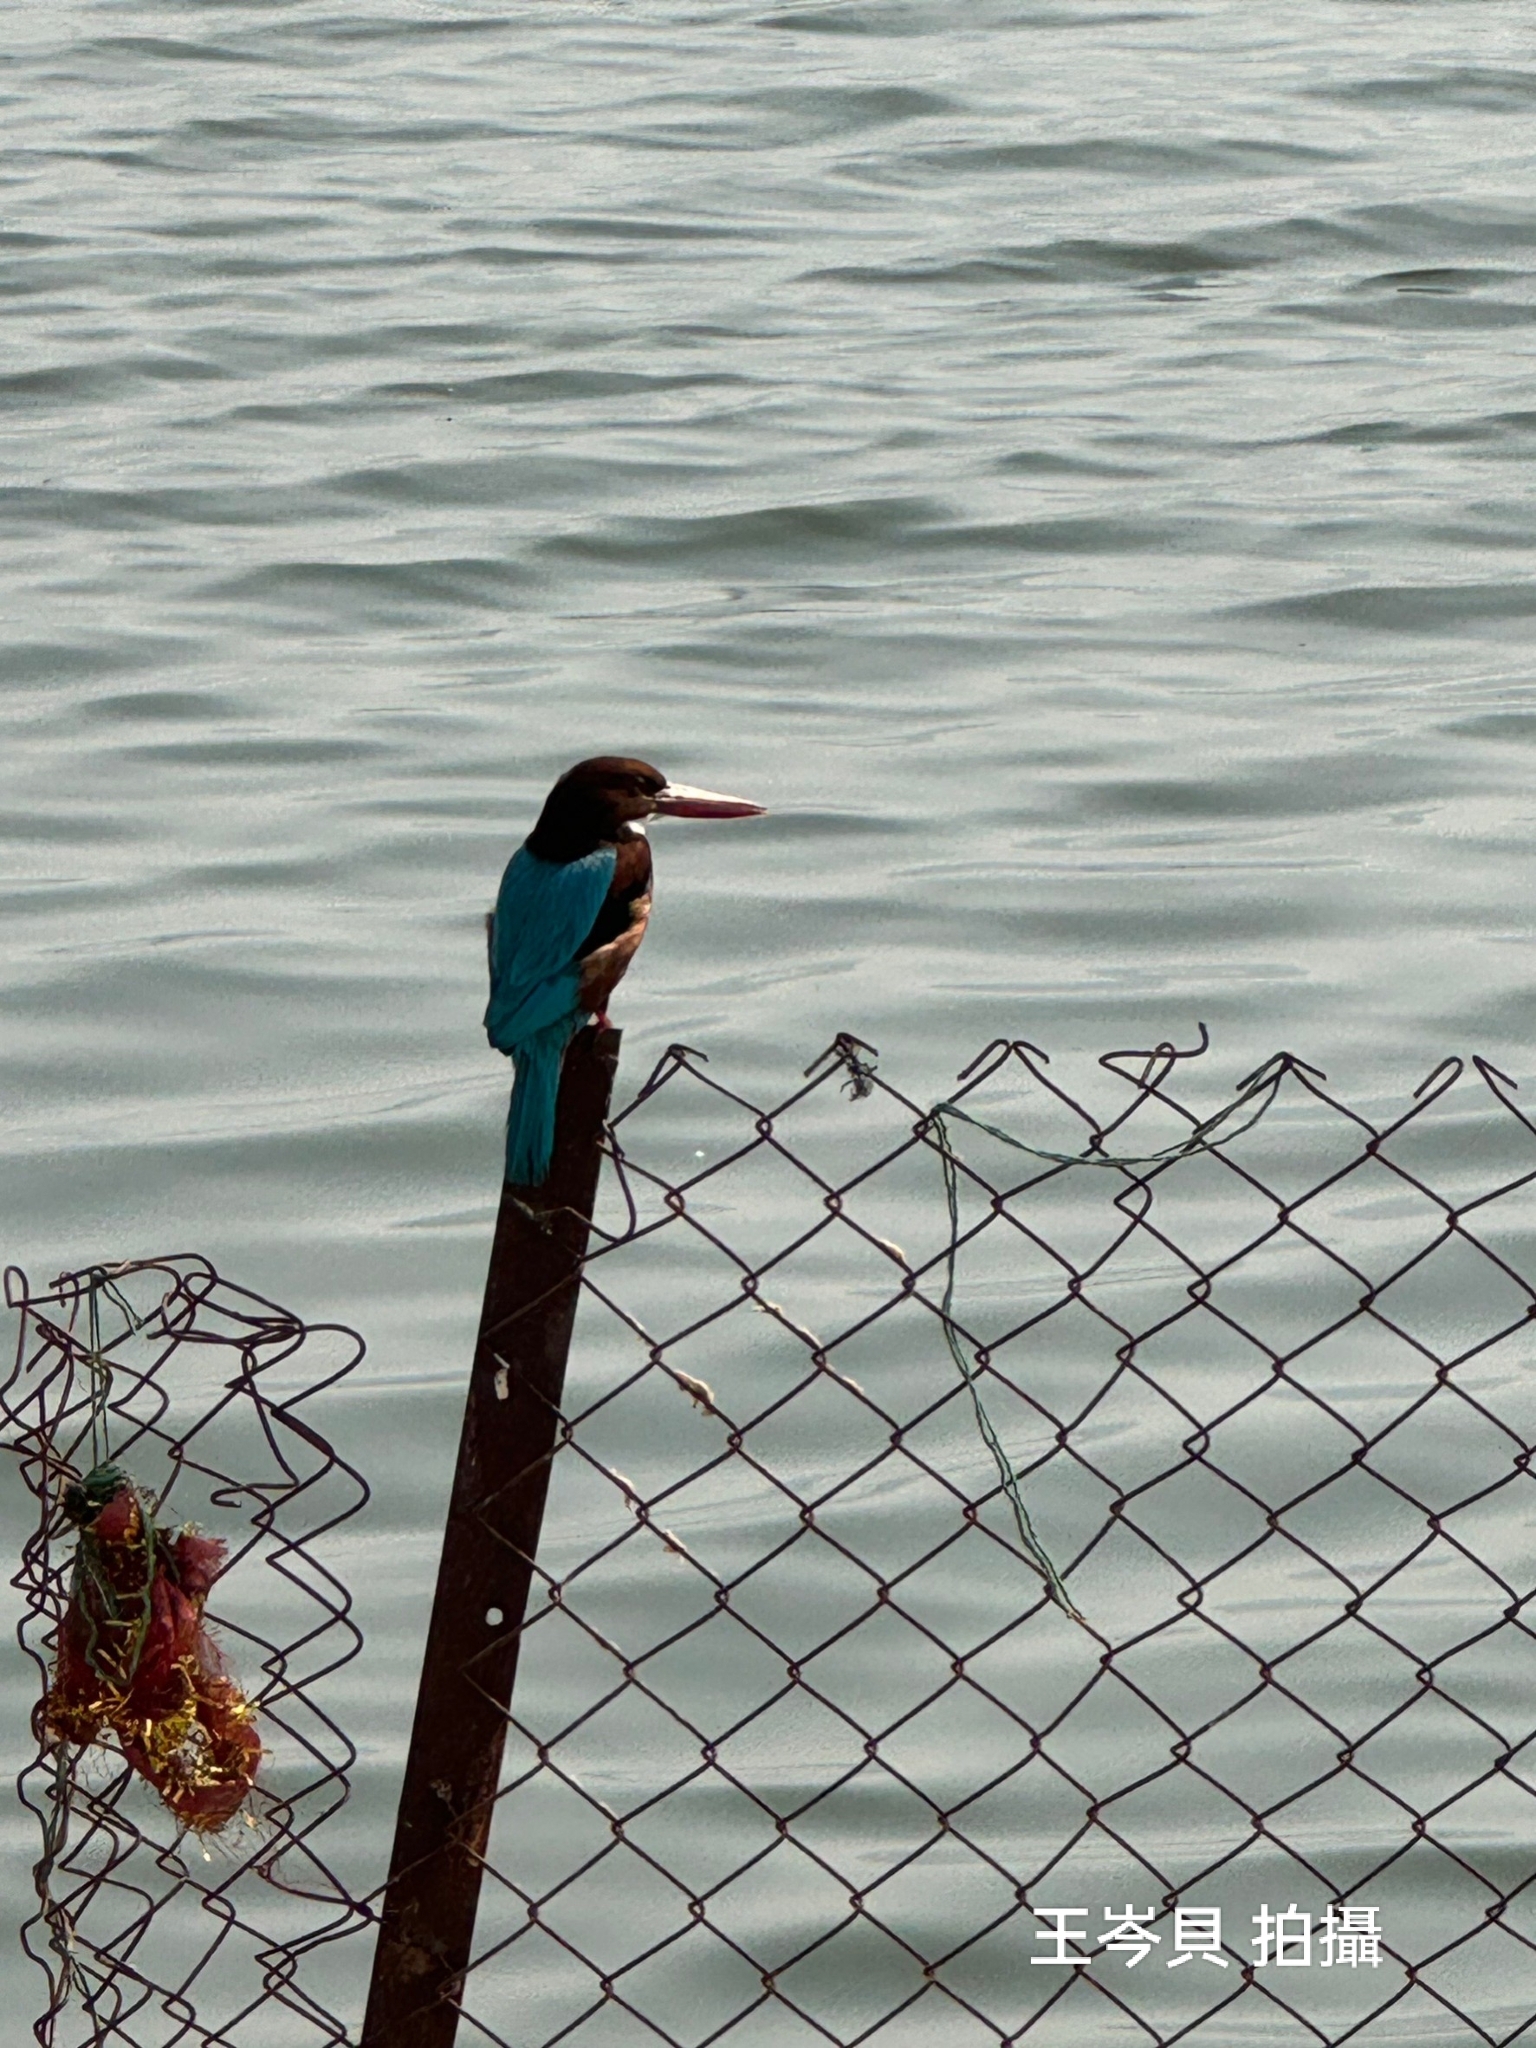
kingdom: Animalia
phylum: Chordata
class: Aves
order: Coraciiformes
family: Alcedinidae
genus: Halcyon
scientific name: Halcyon smyrnensis
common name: White-throated kingfisher
